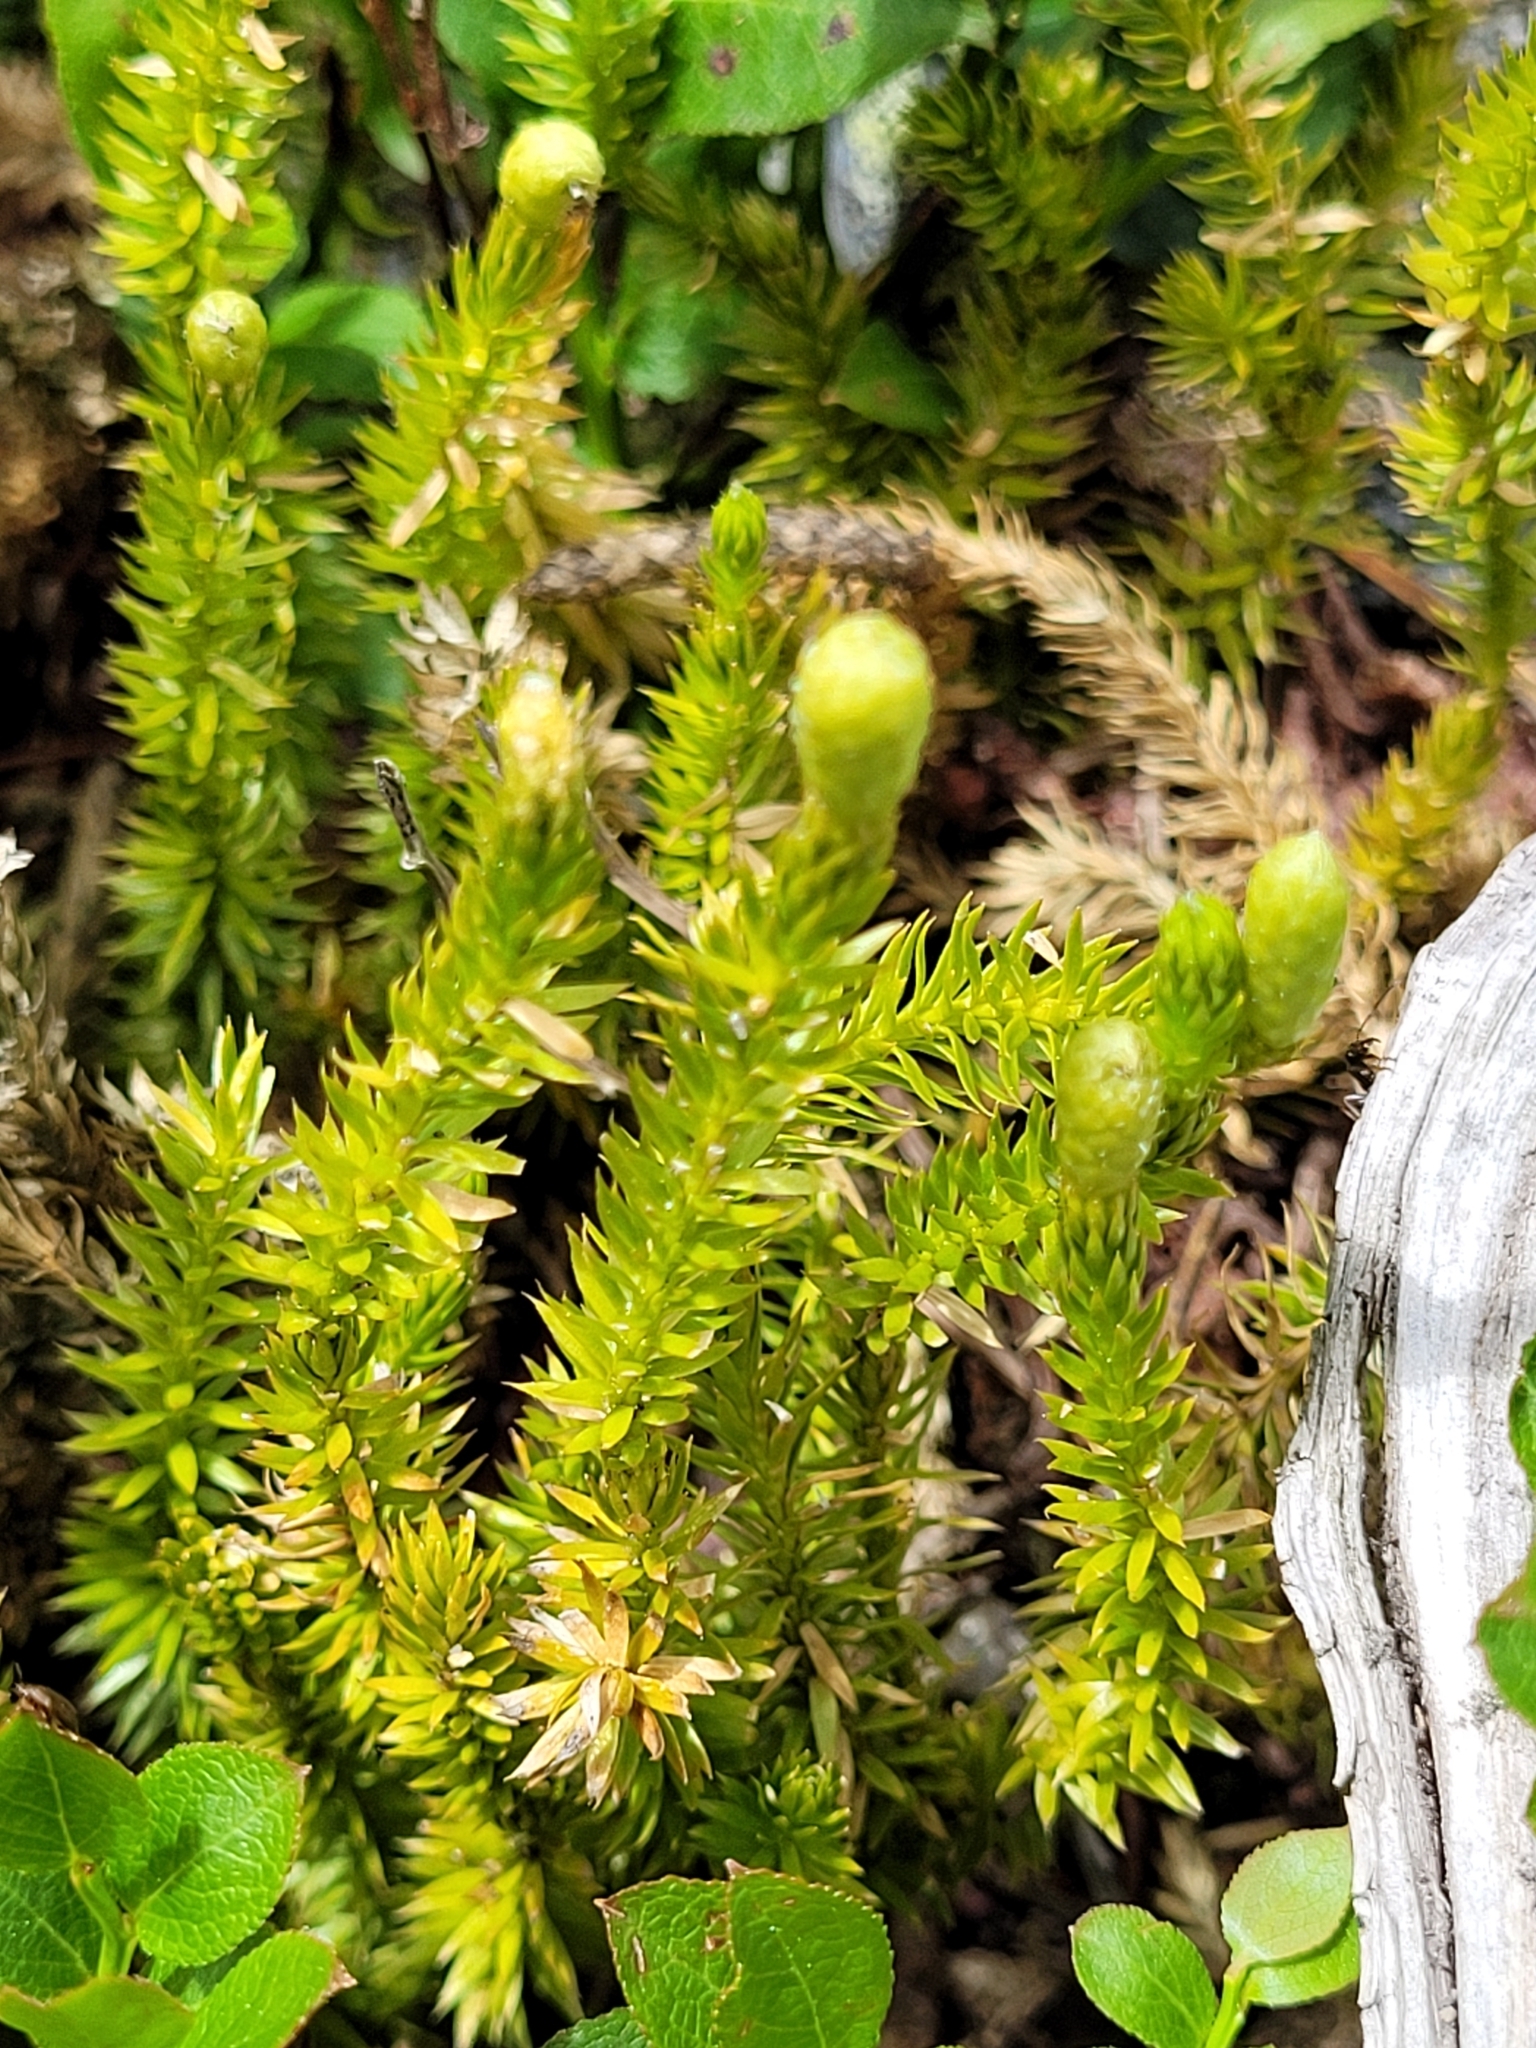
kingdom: Plantae
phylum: Tracheophyta
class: Lycopodiopsida
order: Lycopodiales
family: Lycopodiaceae
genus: Spinulum
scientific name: Spinulum annotinum
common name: Interrupted club-moss
